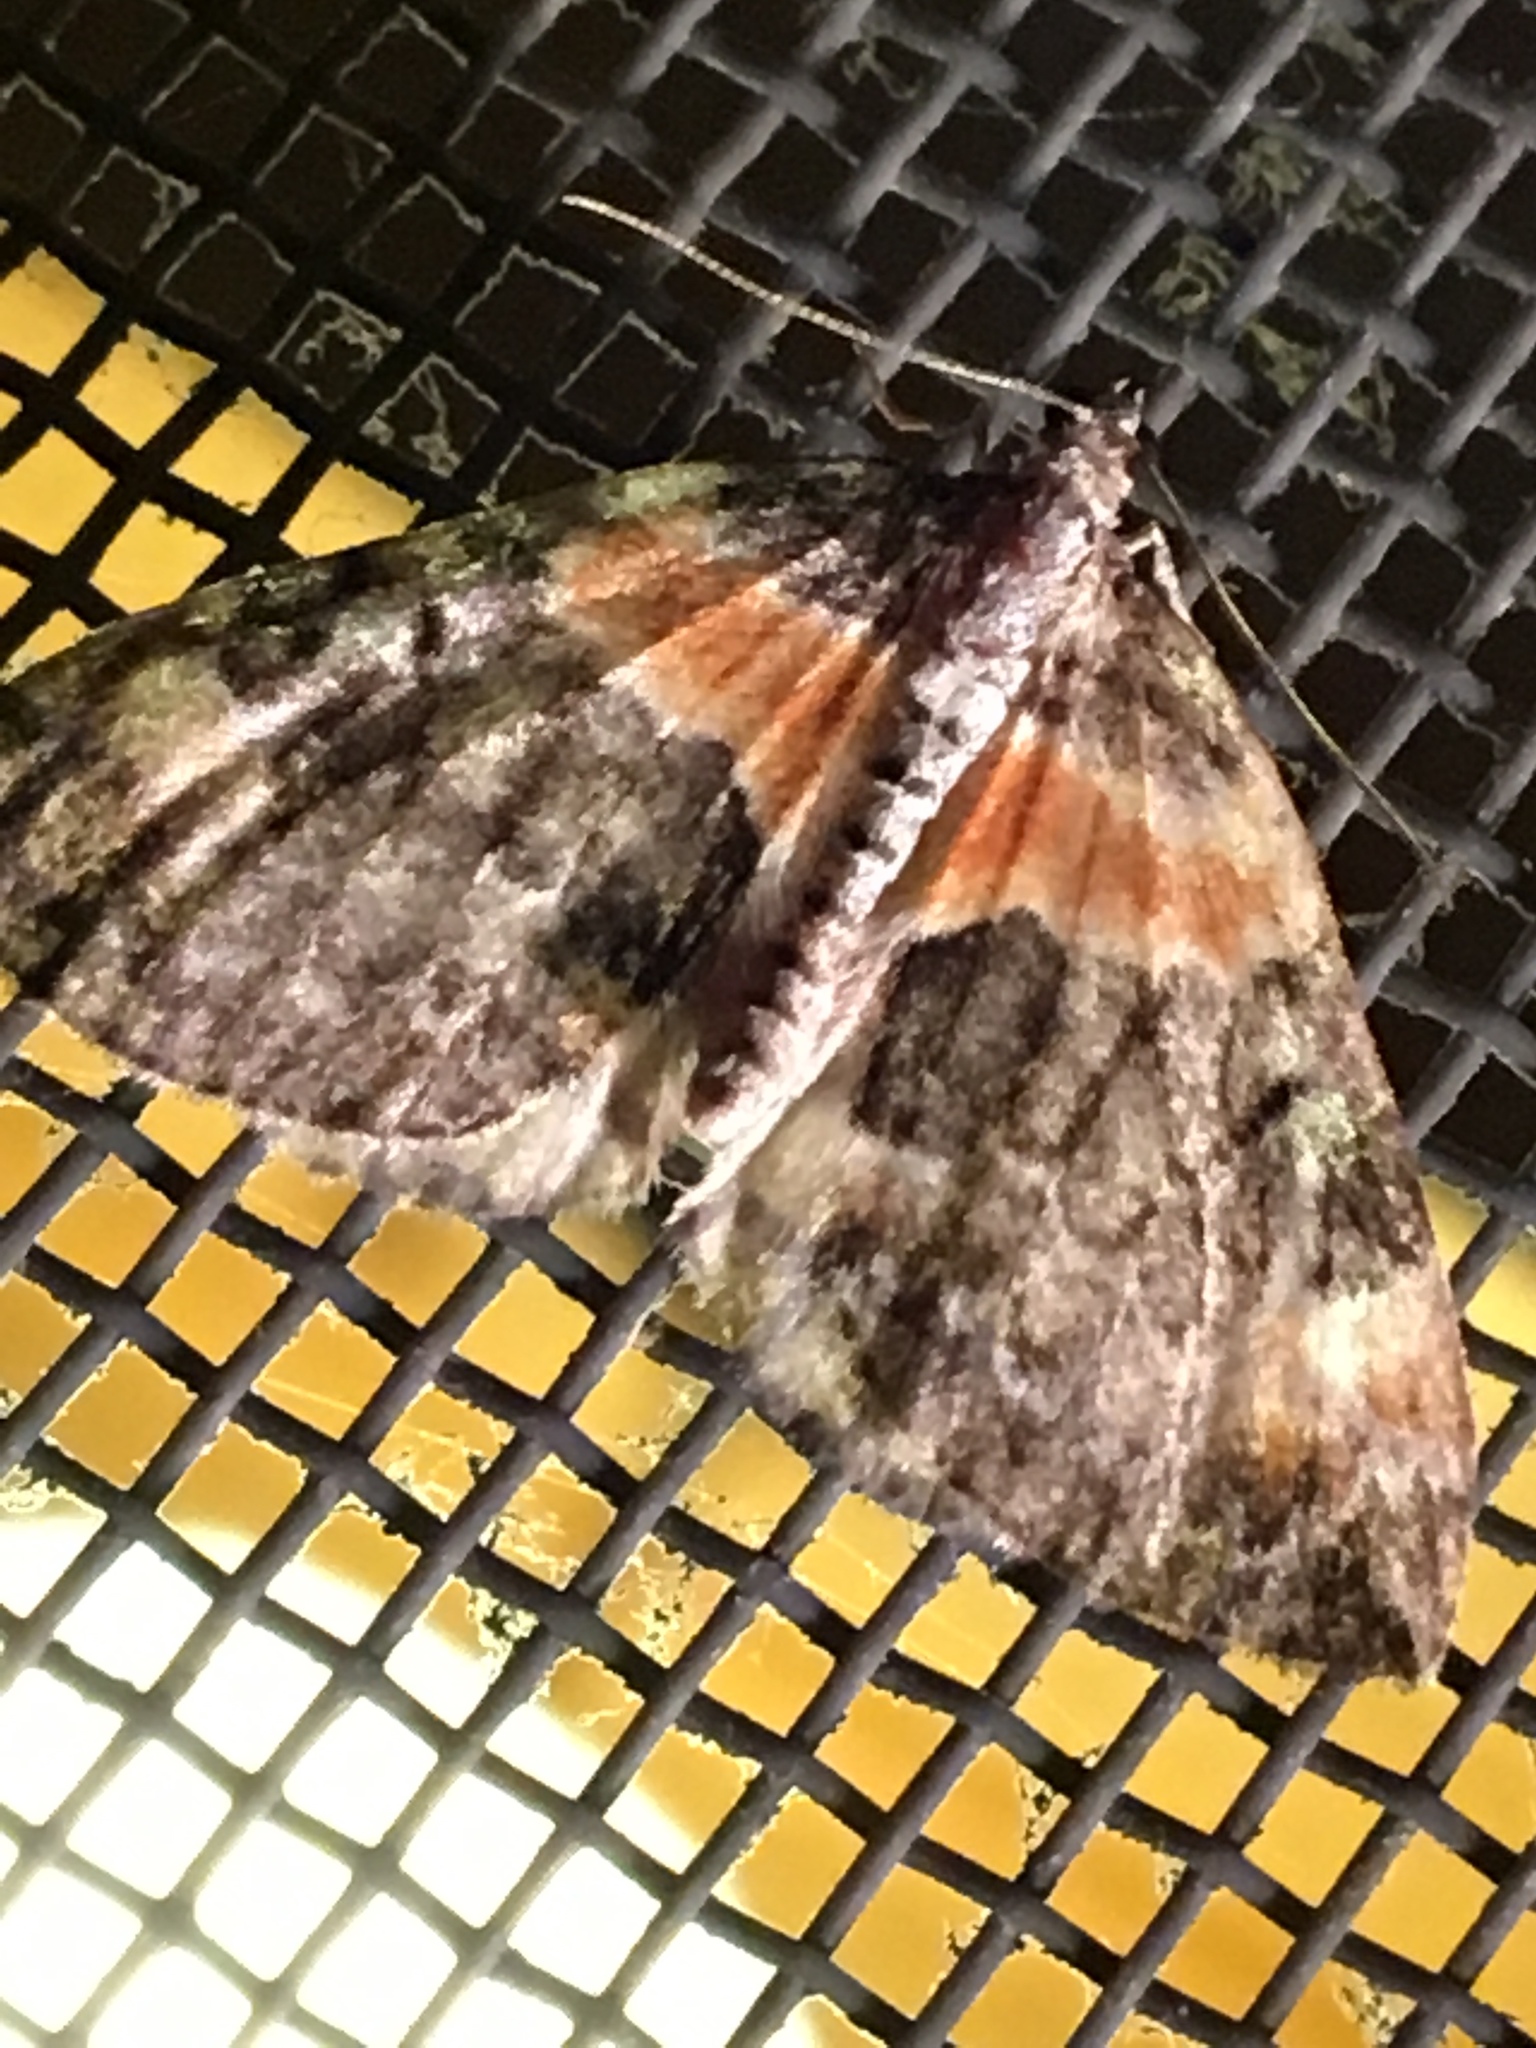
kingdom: Animalia
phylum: Arthropoda
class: Insecta
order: Lepidoptera
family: Geometridae
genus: Dysstroma
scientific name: Dysstroma hersiliata
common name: Orange-barred carpet
